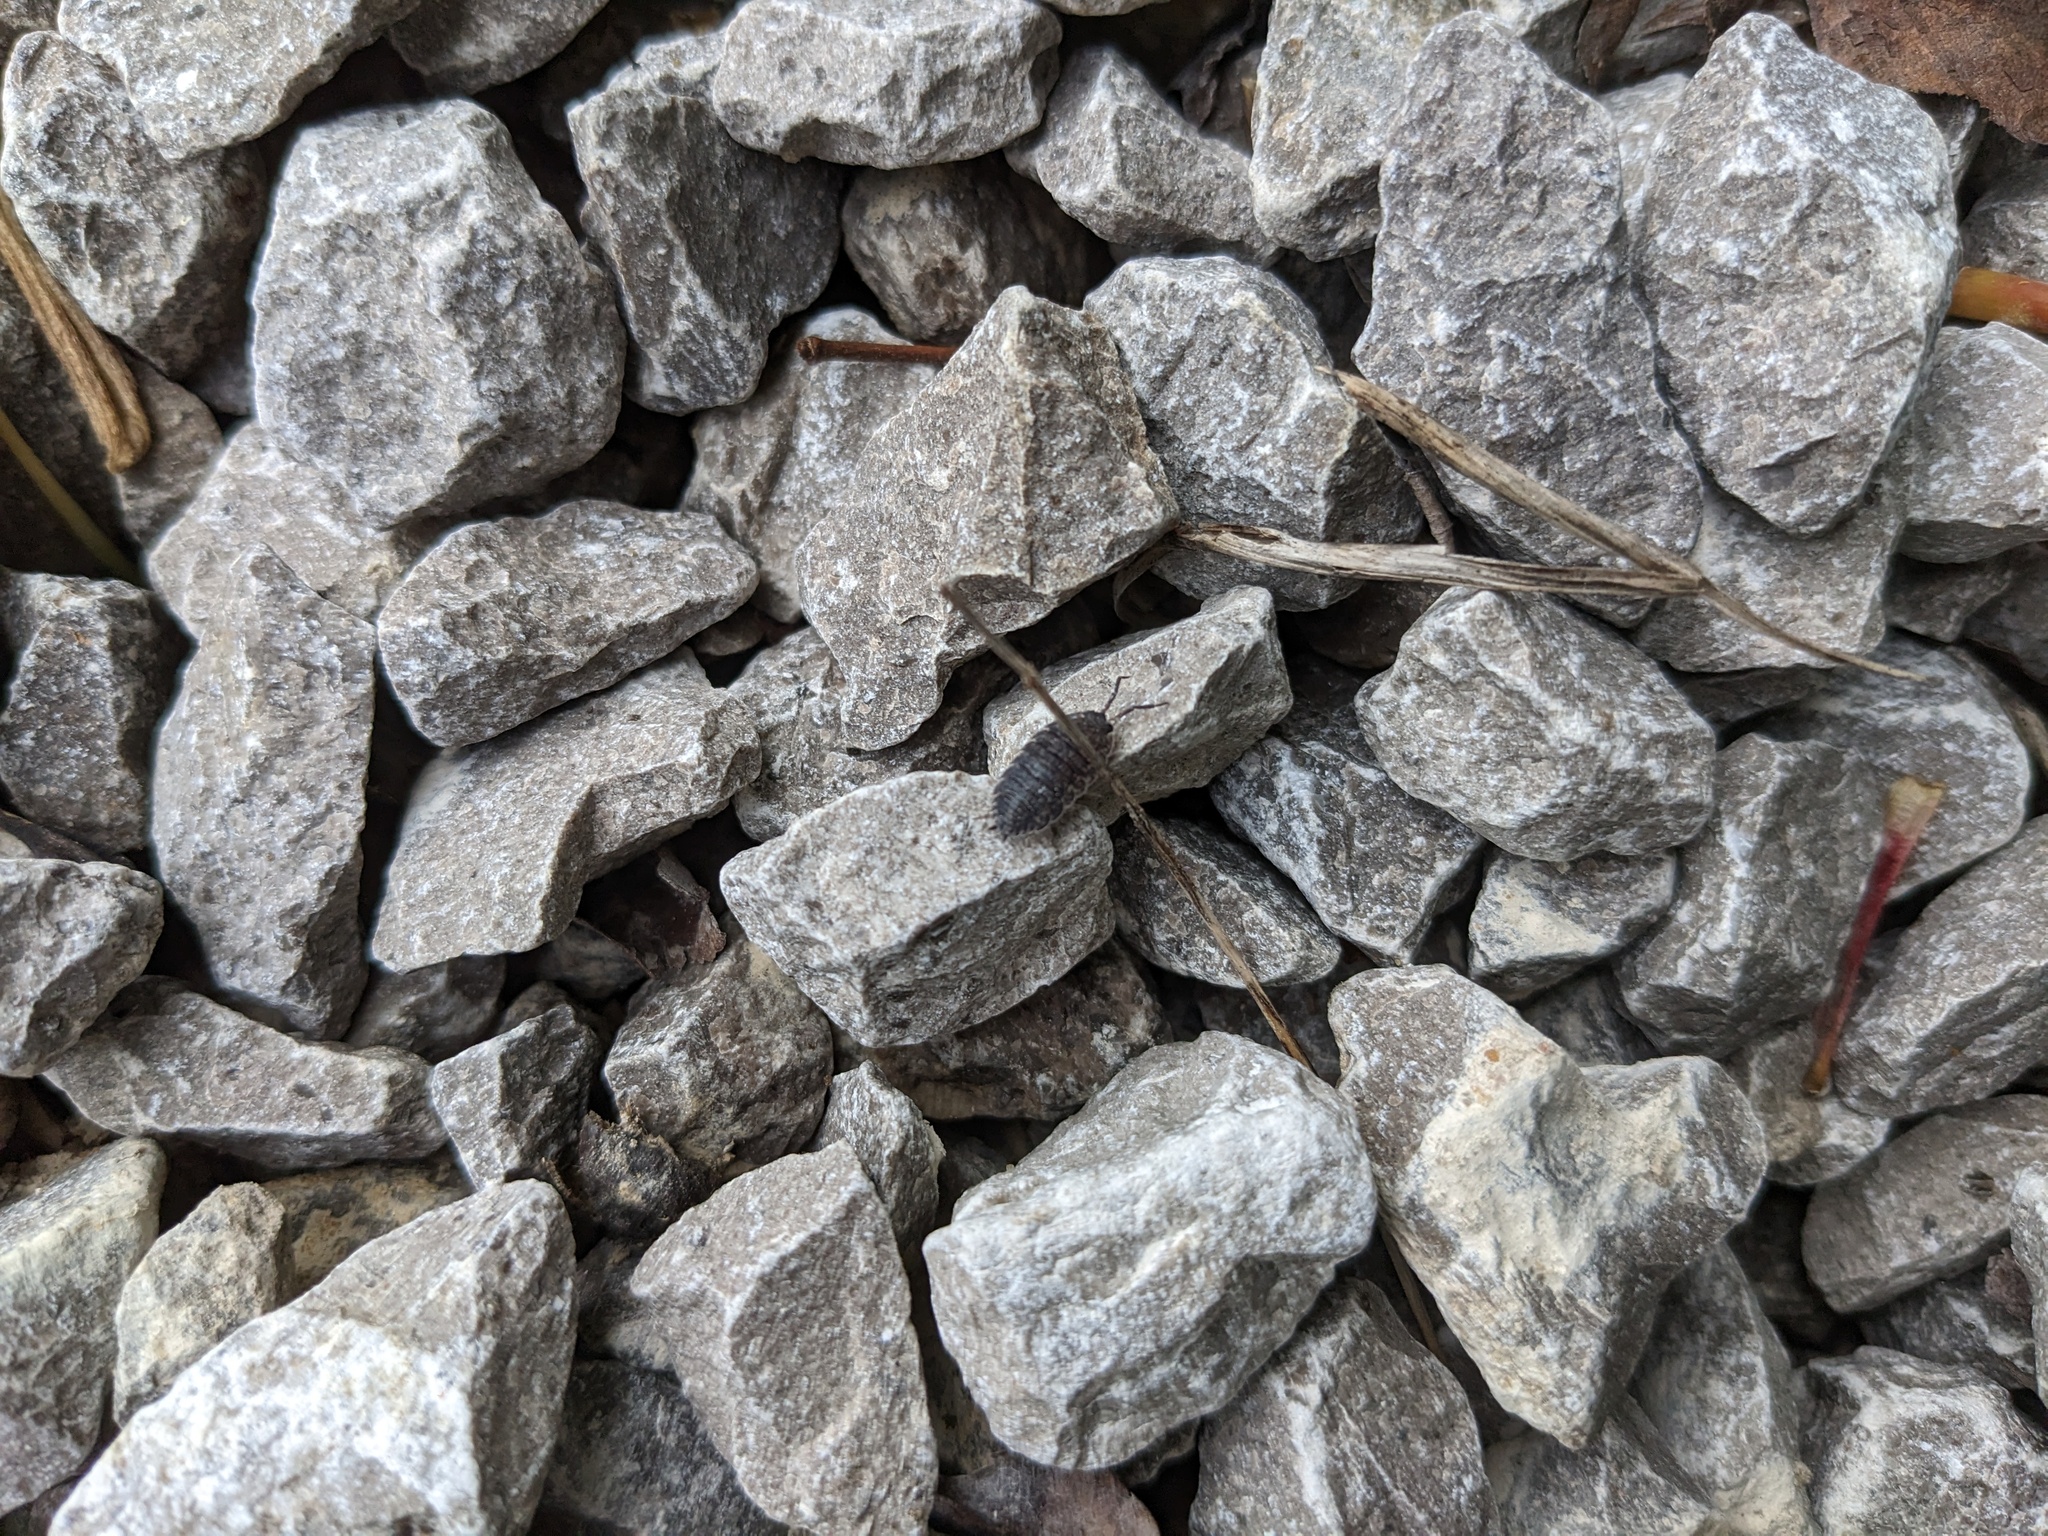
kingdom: Animalia
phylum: Arthropoda
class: Malacostraca
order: Isopoda
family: Porcellionidae
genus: Porcellio
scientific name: Porcellio scaber
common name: Common rough woodlouse
